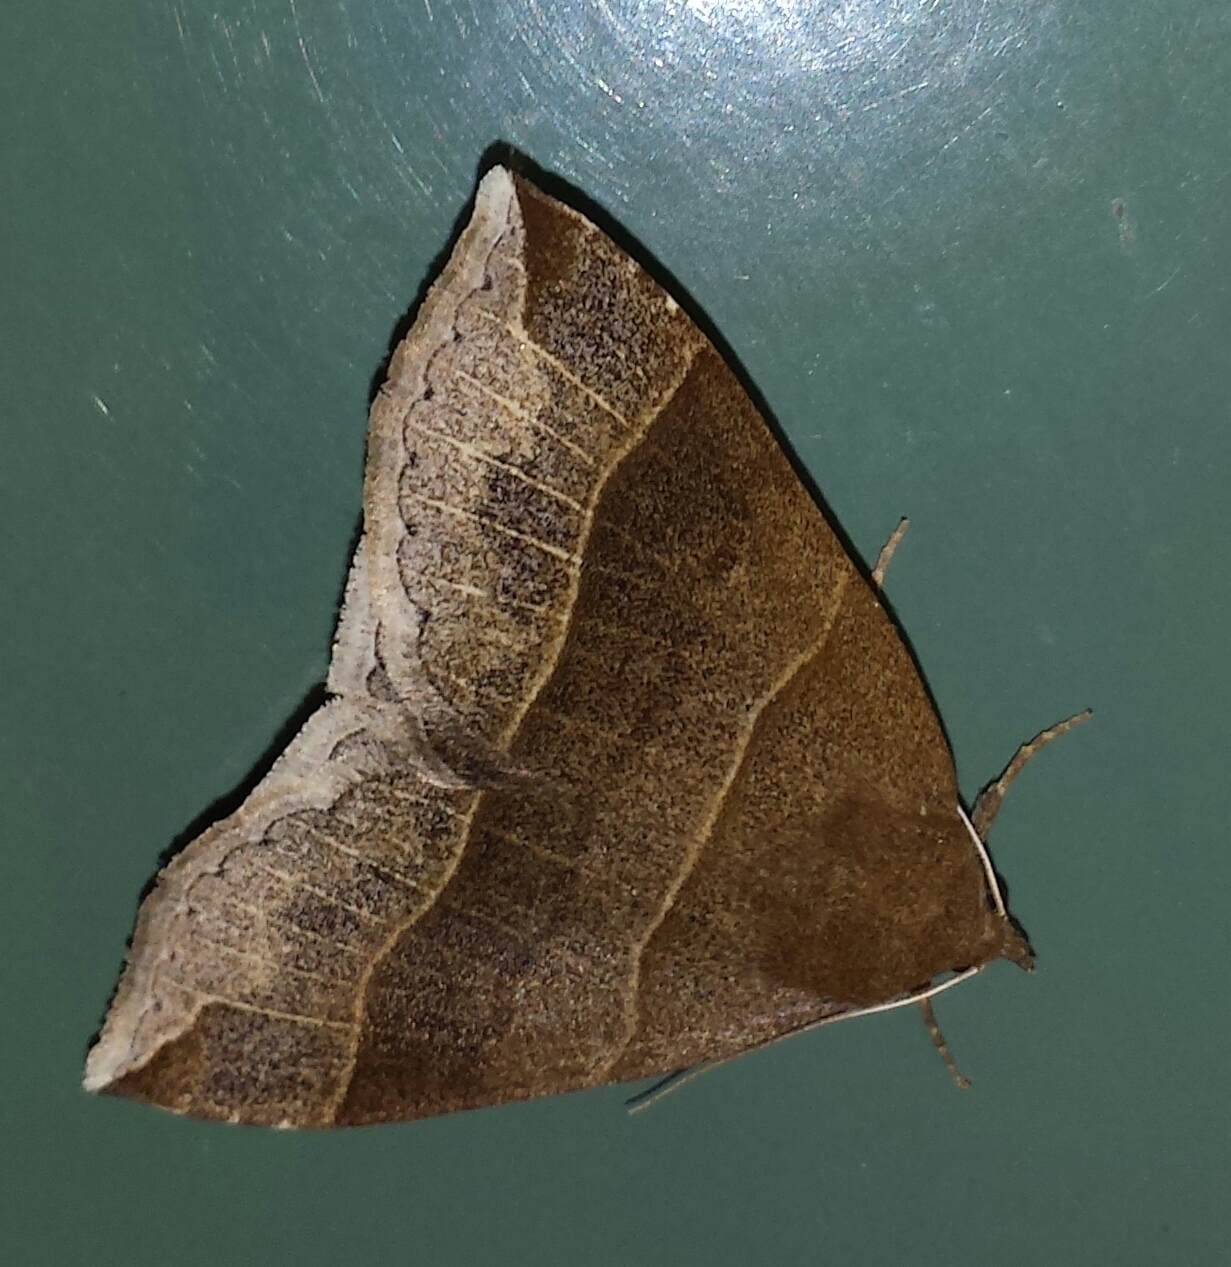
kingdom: Animalia
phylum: Arthropoda
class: Insecta
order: Lepidoptera
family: Erebidae
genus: Parallelia
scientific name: Parallelia bistriaris
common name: Maple looper moth
